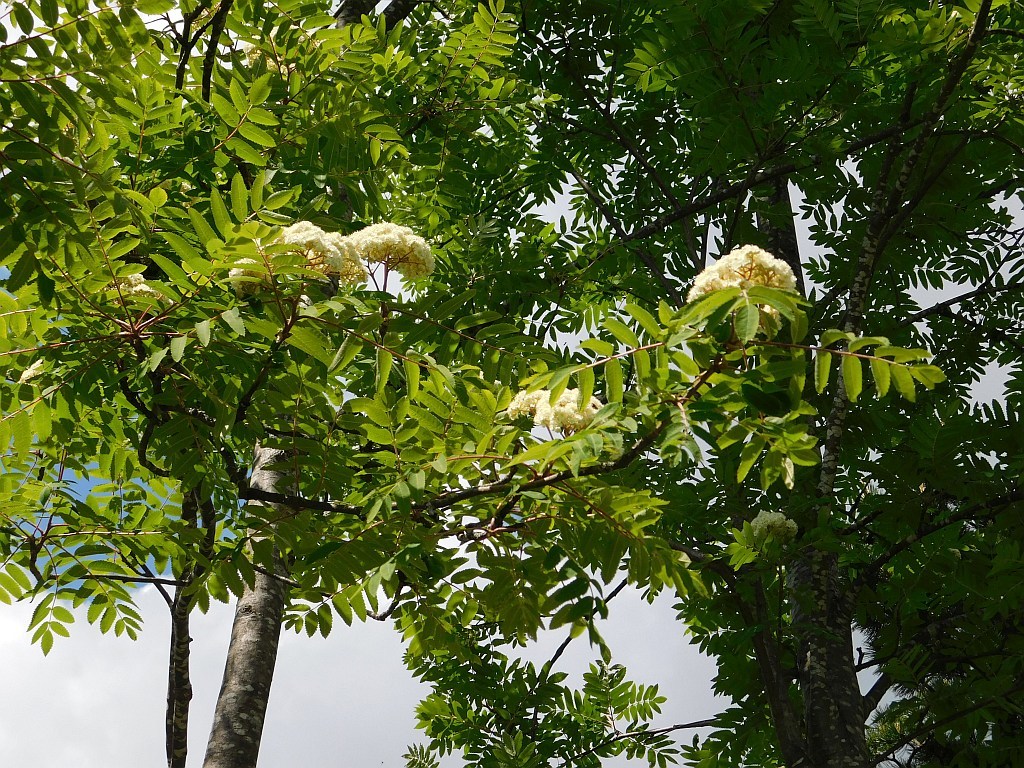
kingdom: Plantae
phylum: Tracheophyta
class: Magnoliopsida
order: Rosales
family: Rosaceae
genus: Sorbus
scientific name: Sorbus aucuparia
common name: Rowan
